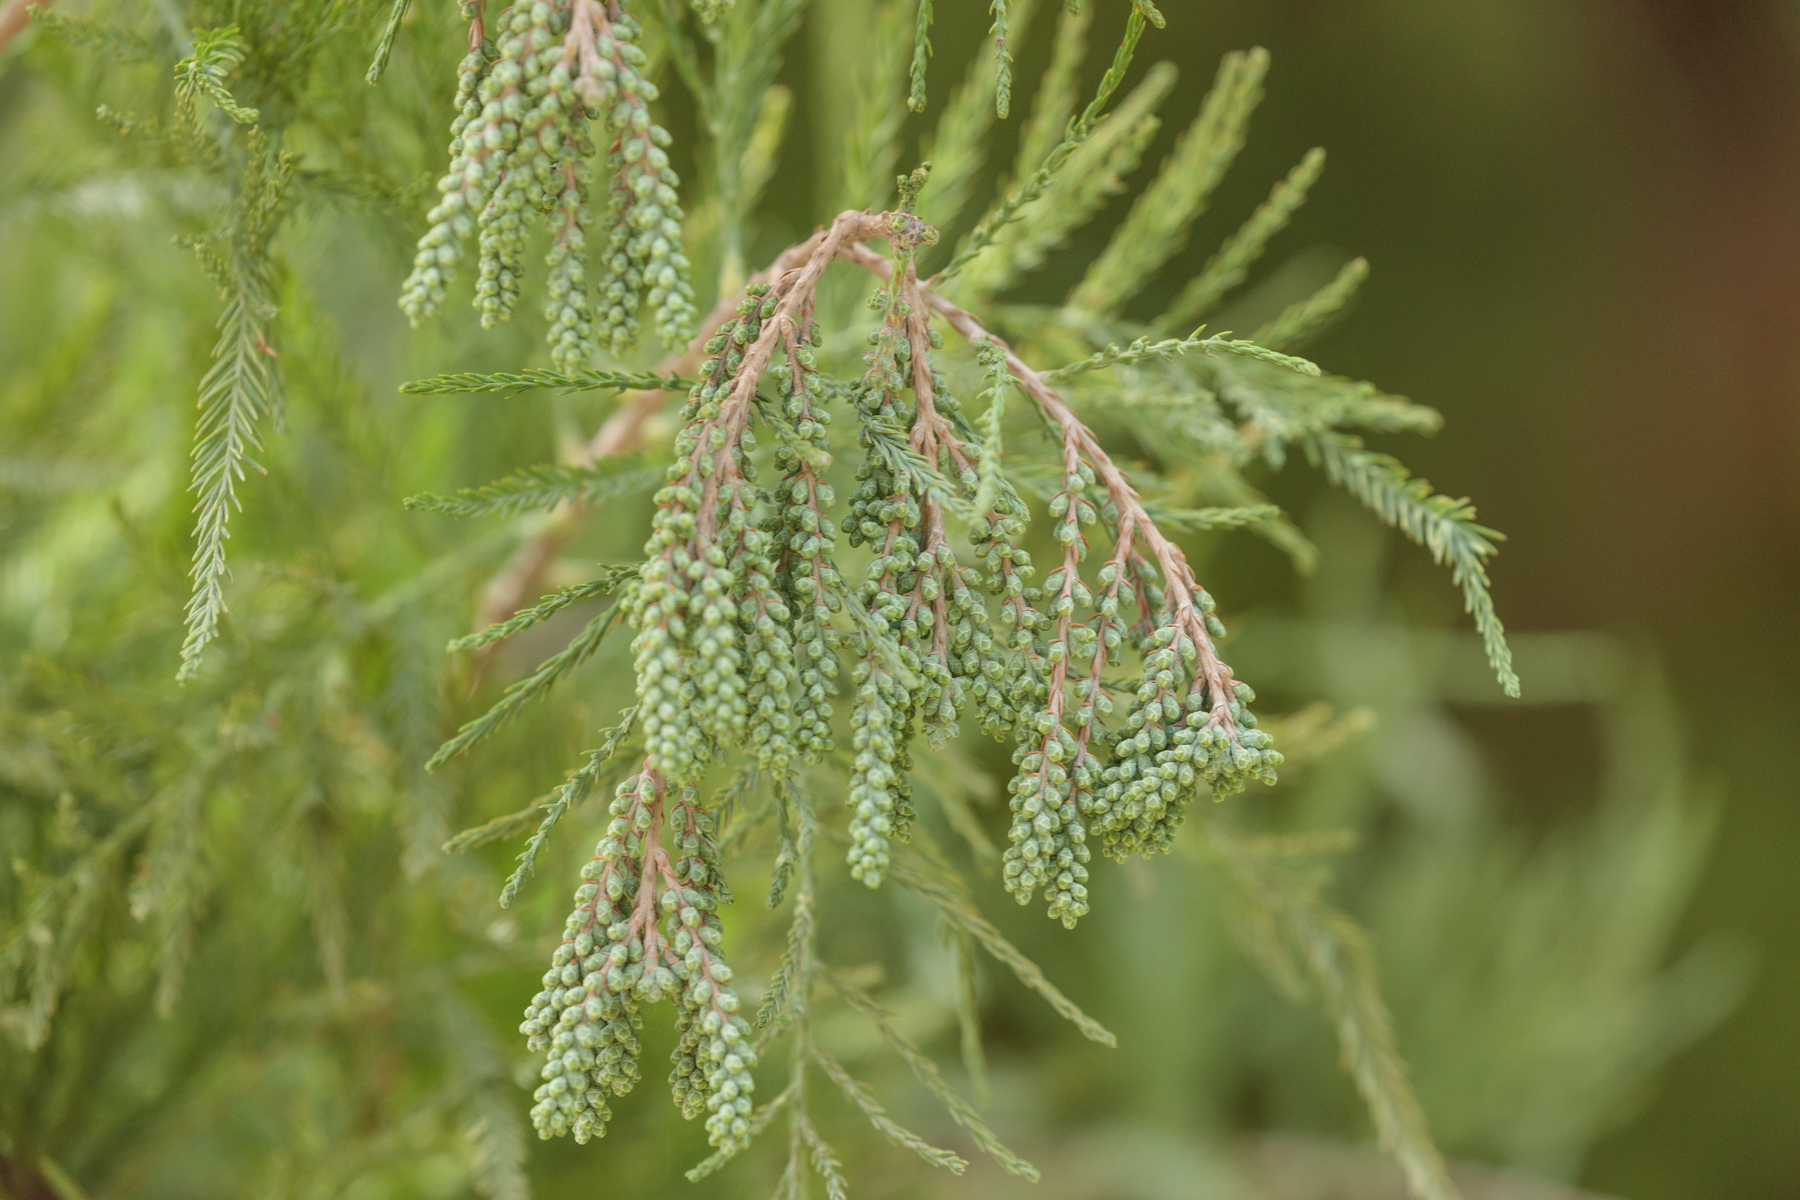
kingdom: Plantae
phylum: Tracheophyta
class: Pinopsida
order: Pinales
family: Cupressaceae
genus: Taxodium
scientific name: Taxodium distichum
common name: Bald cypress
